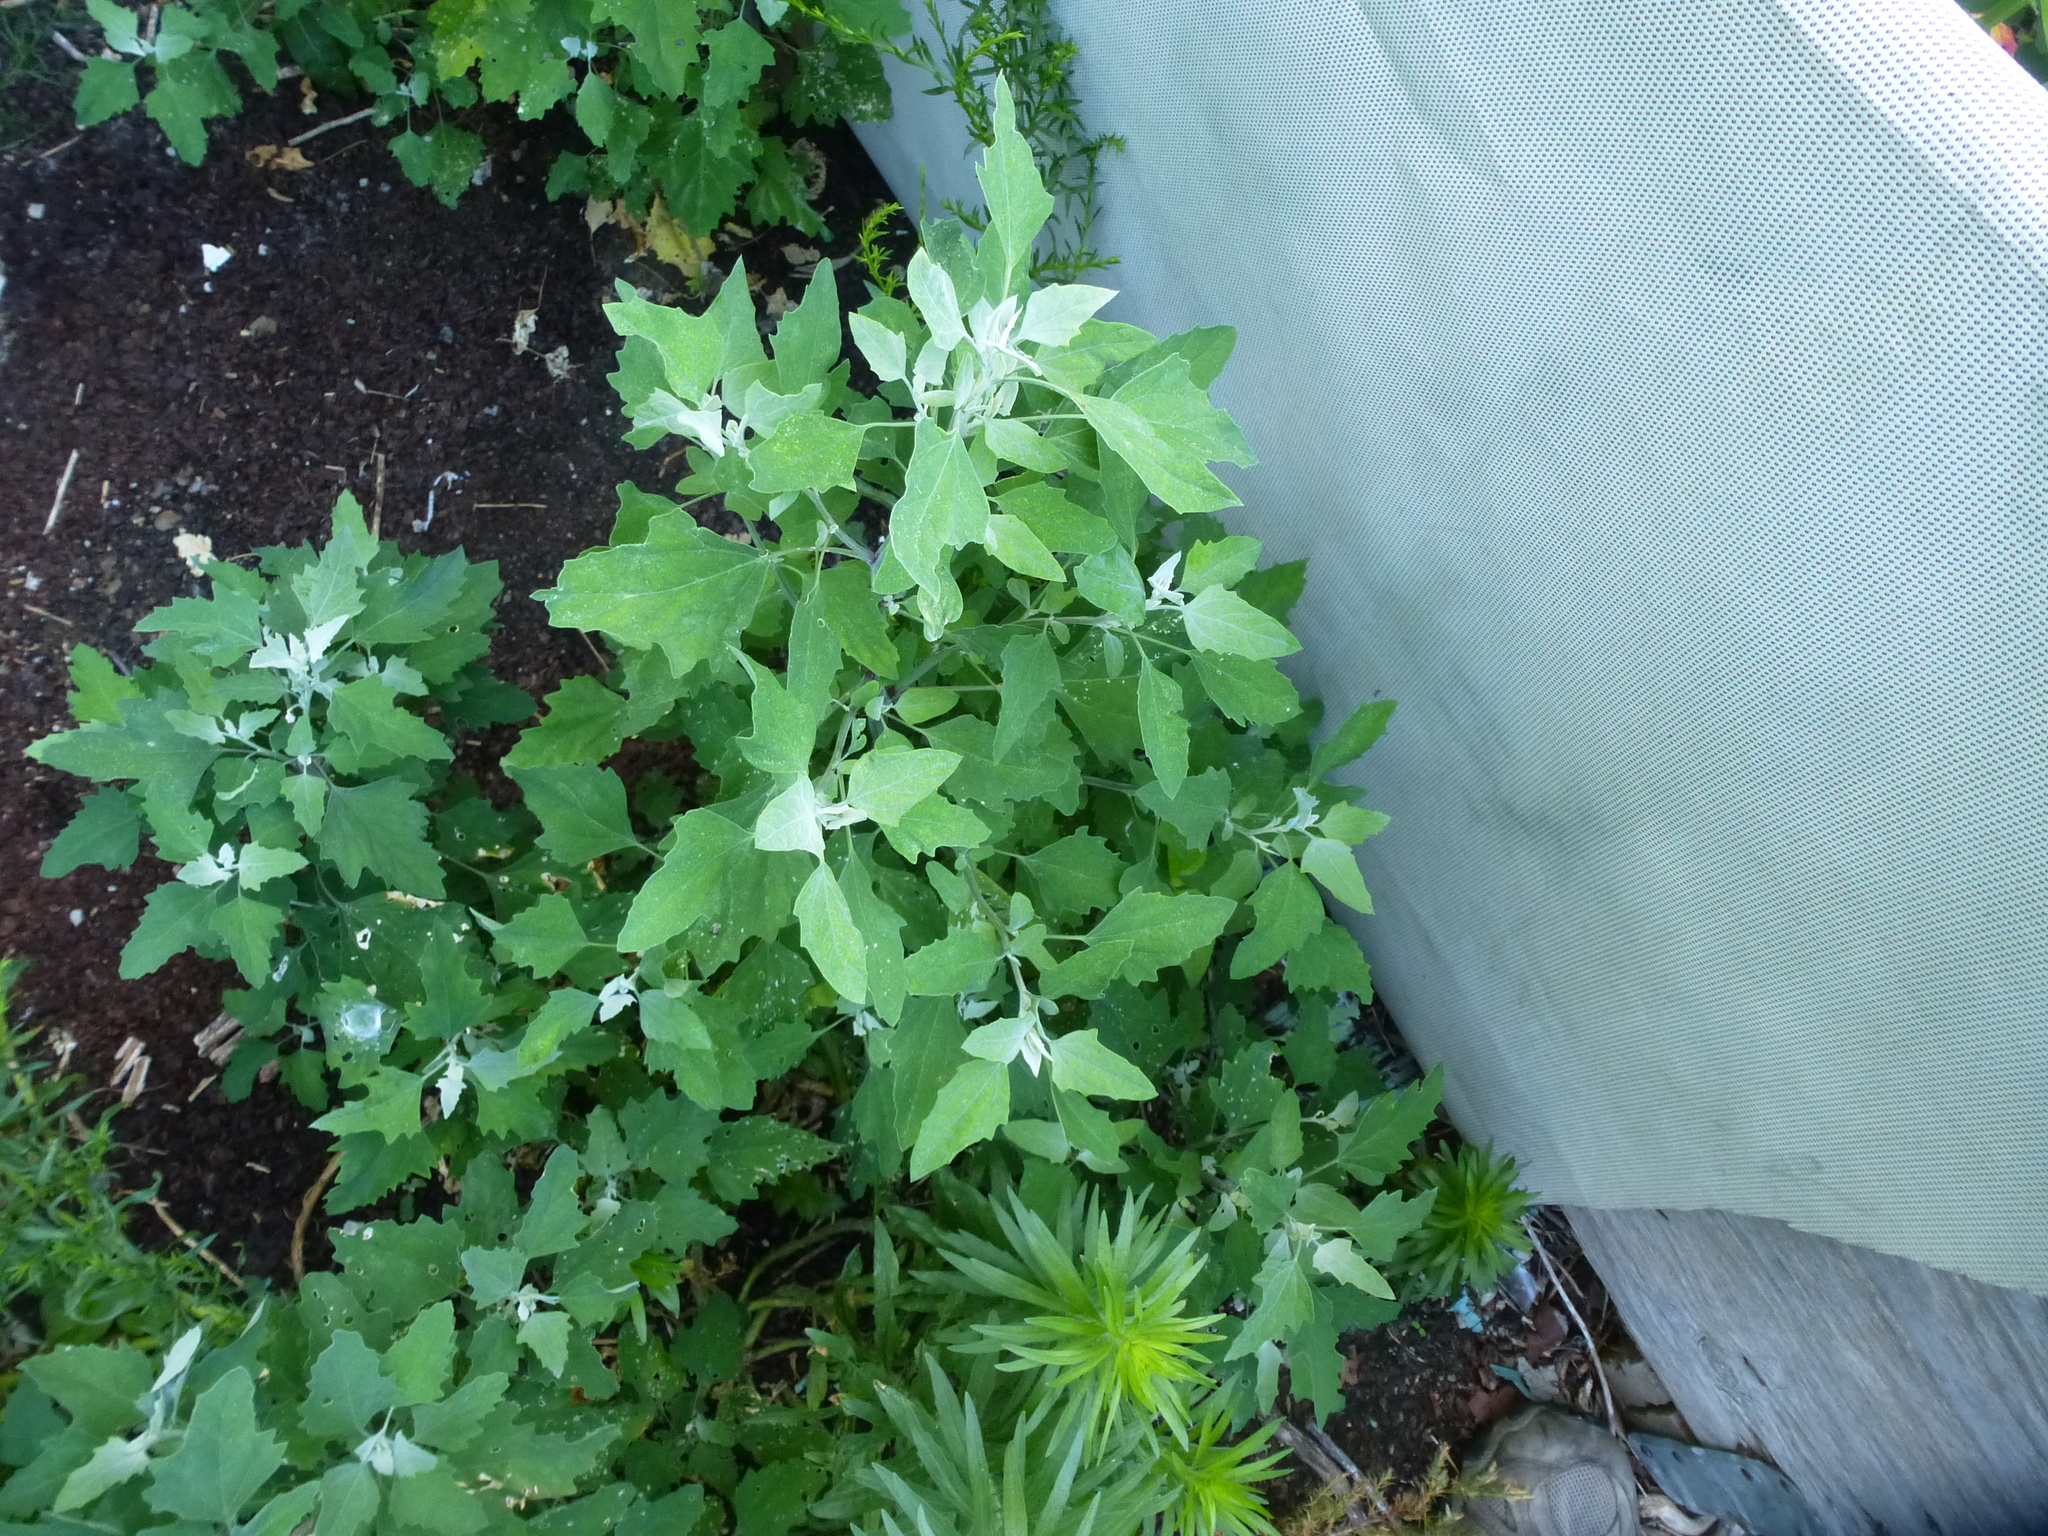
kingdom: Plantae
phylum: Tracheophyta
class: Magnoliopsida
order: Caryophyllales
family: Amaranthaceae
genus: Chenopodium
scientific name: Chenopodium album
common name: Fat-hen
